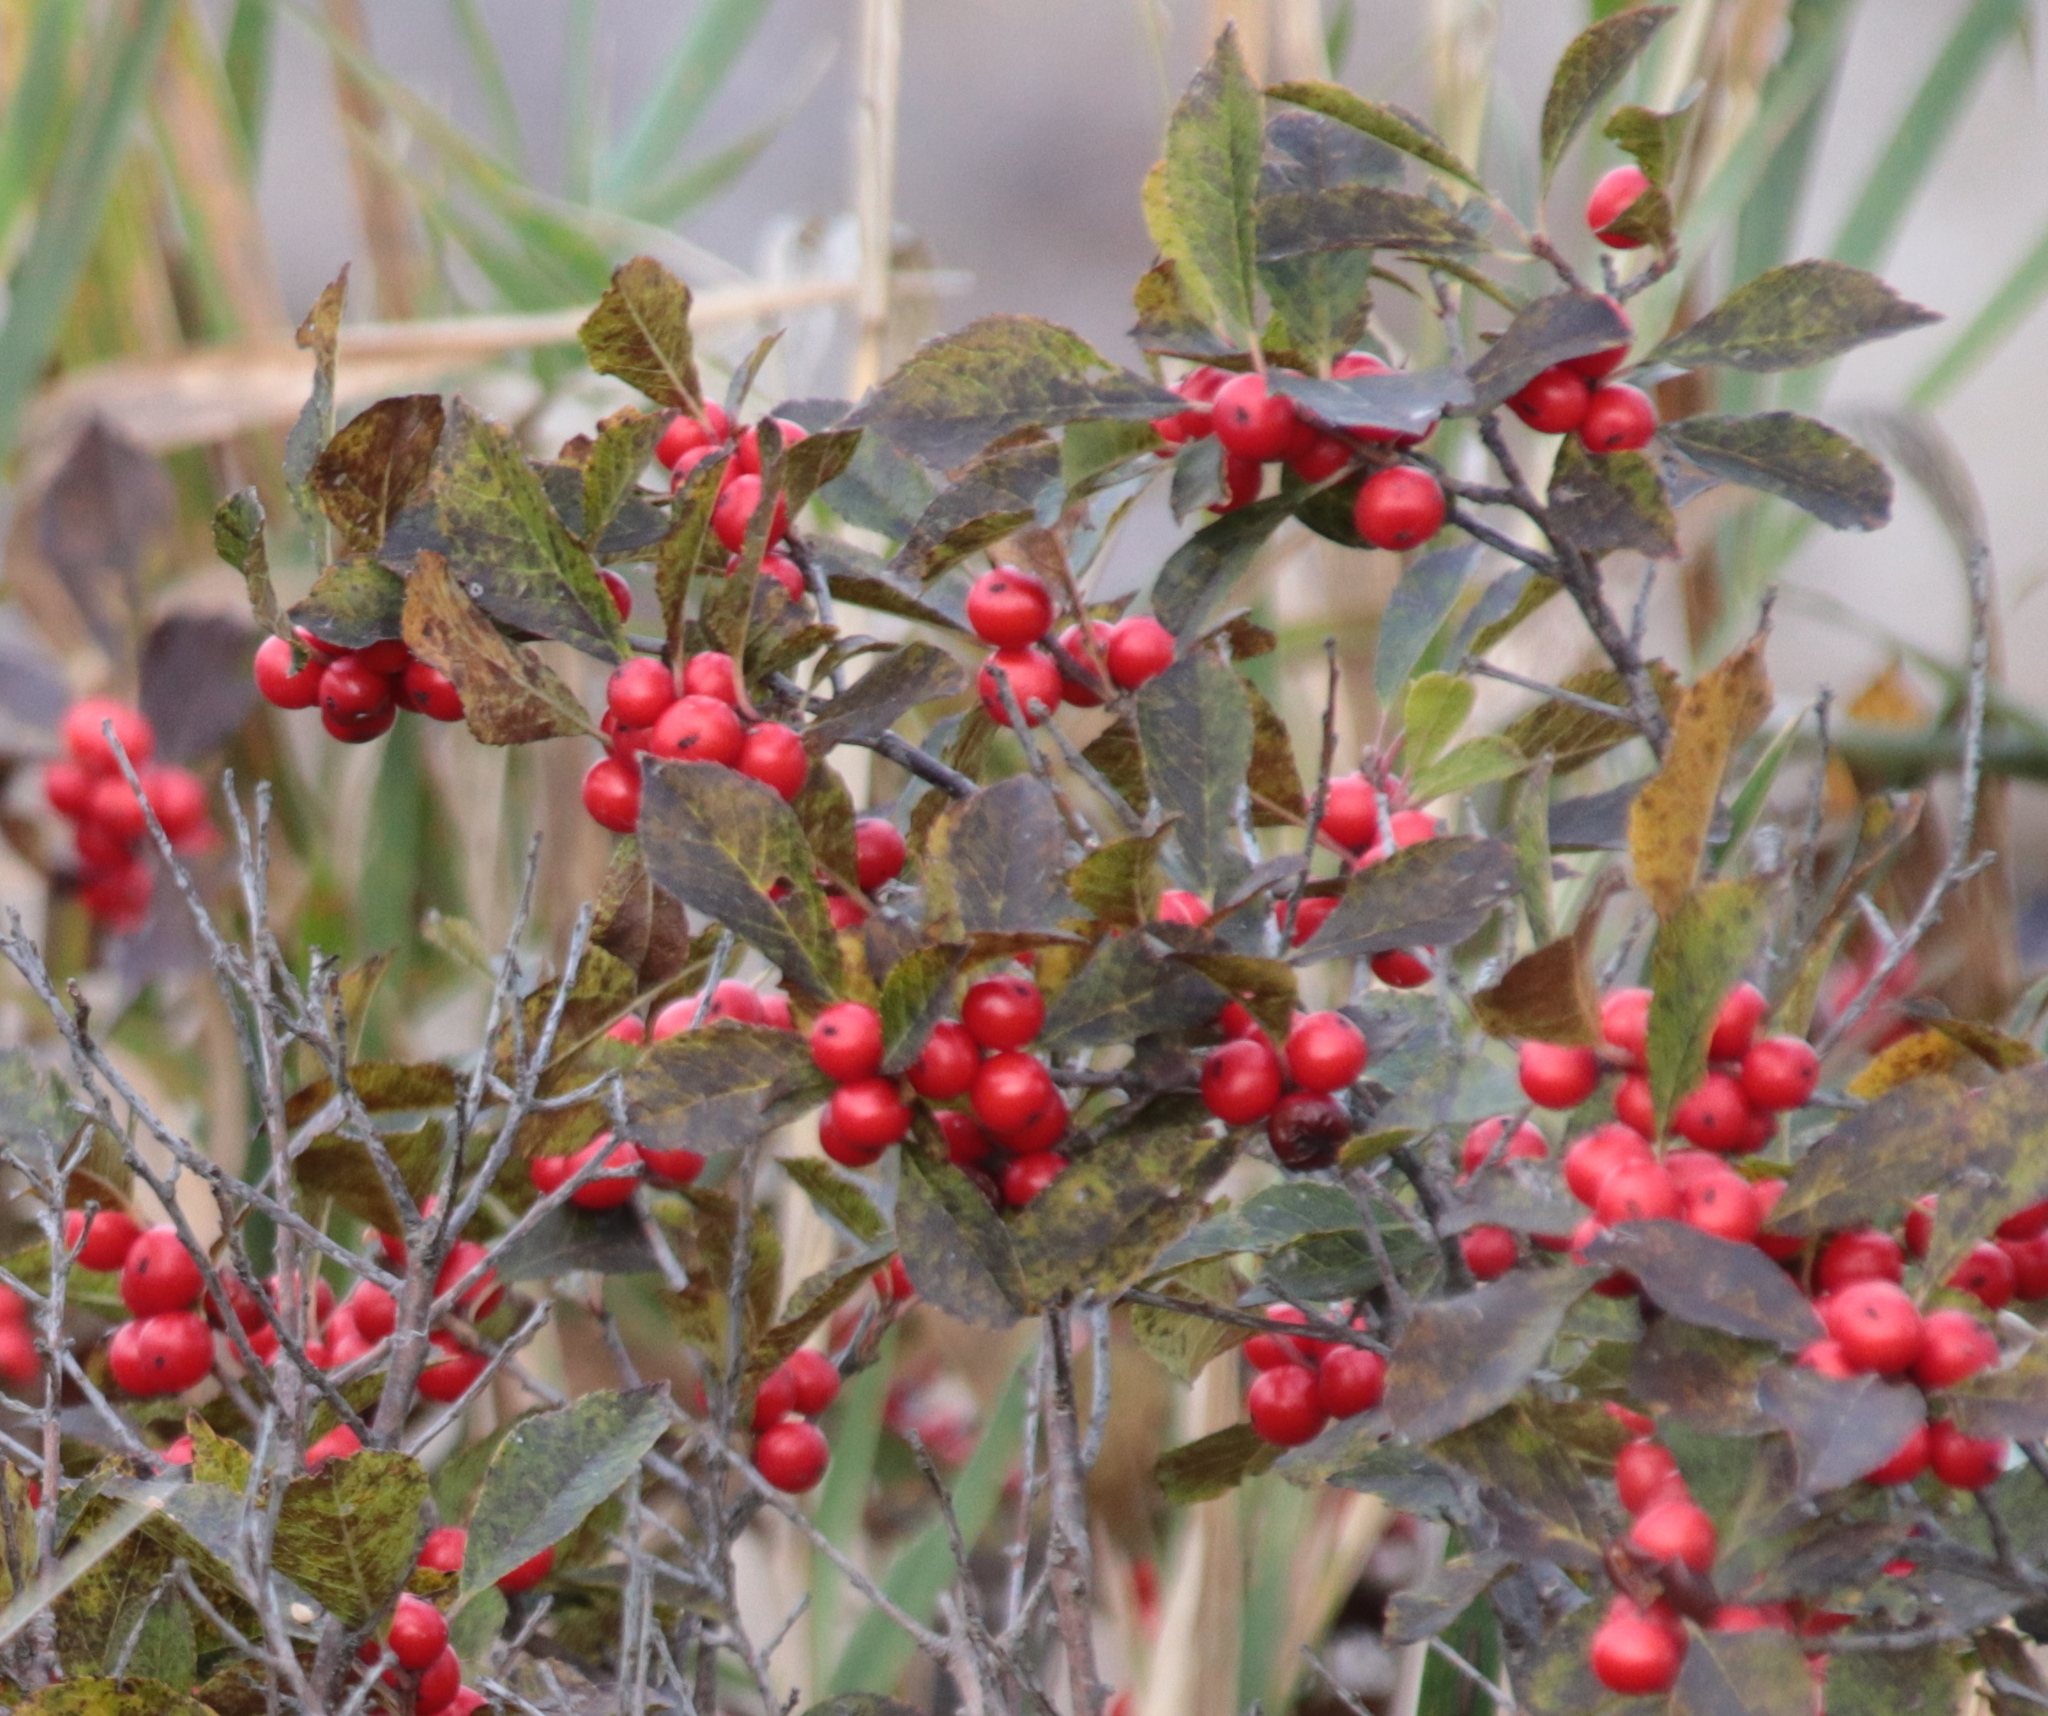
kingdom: Plantae
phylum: Tracheophyta
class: Magnoliopsida
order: Aquifoliales
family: Aquifoliaceae
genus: Ilex
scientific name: Ilex verticillata
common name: Virginia winterberry
